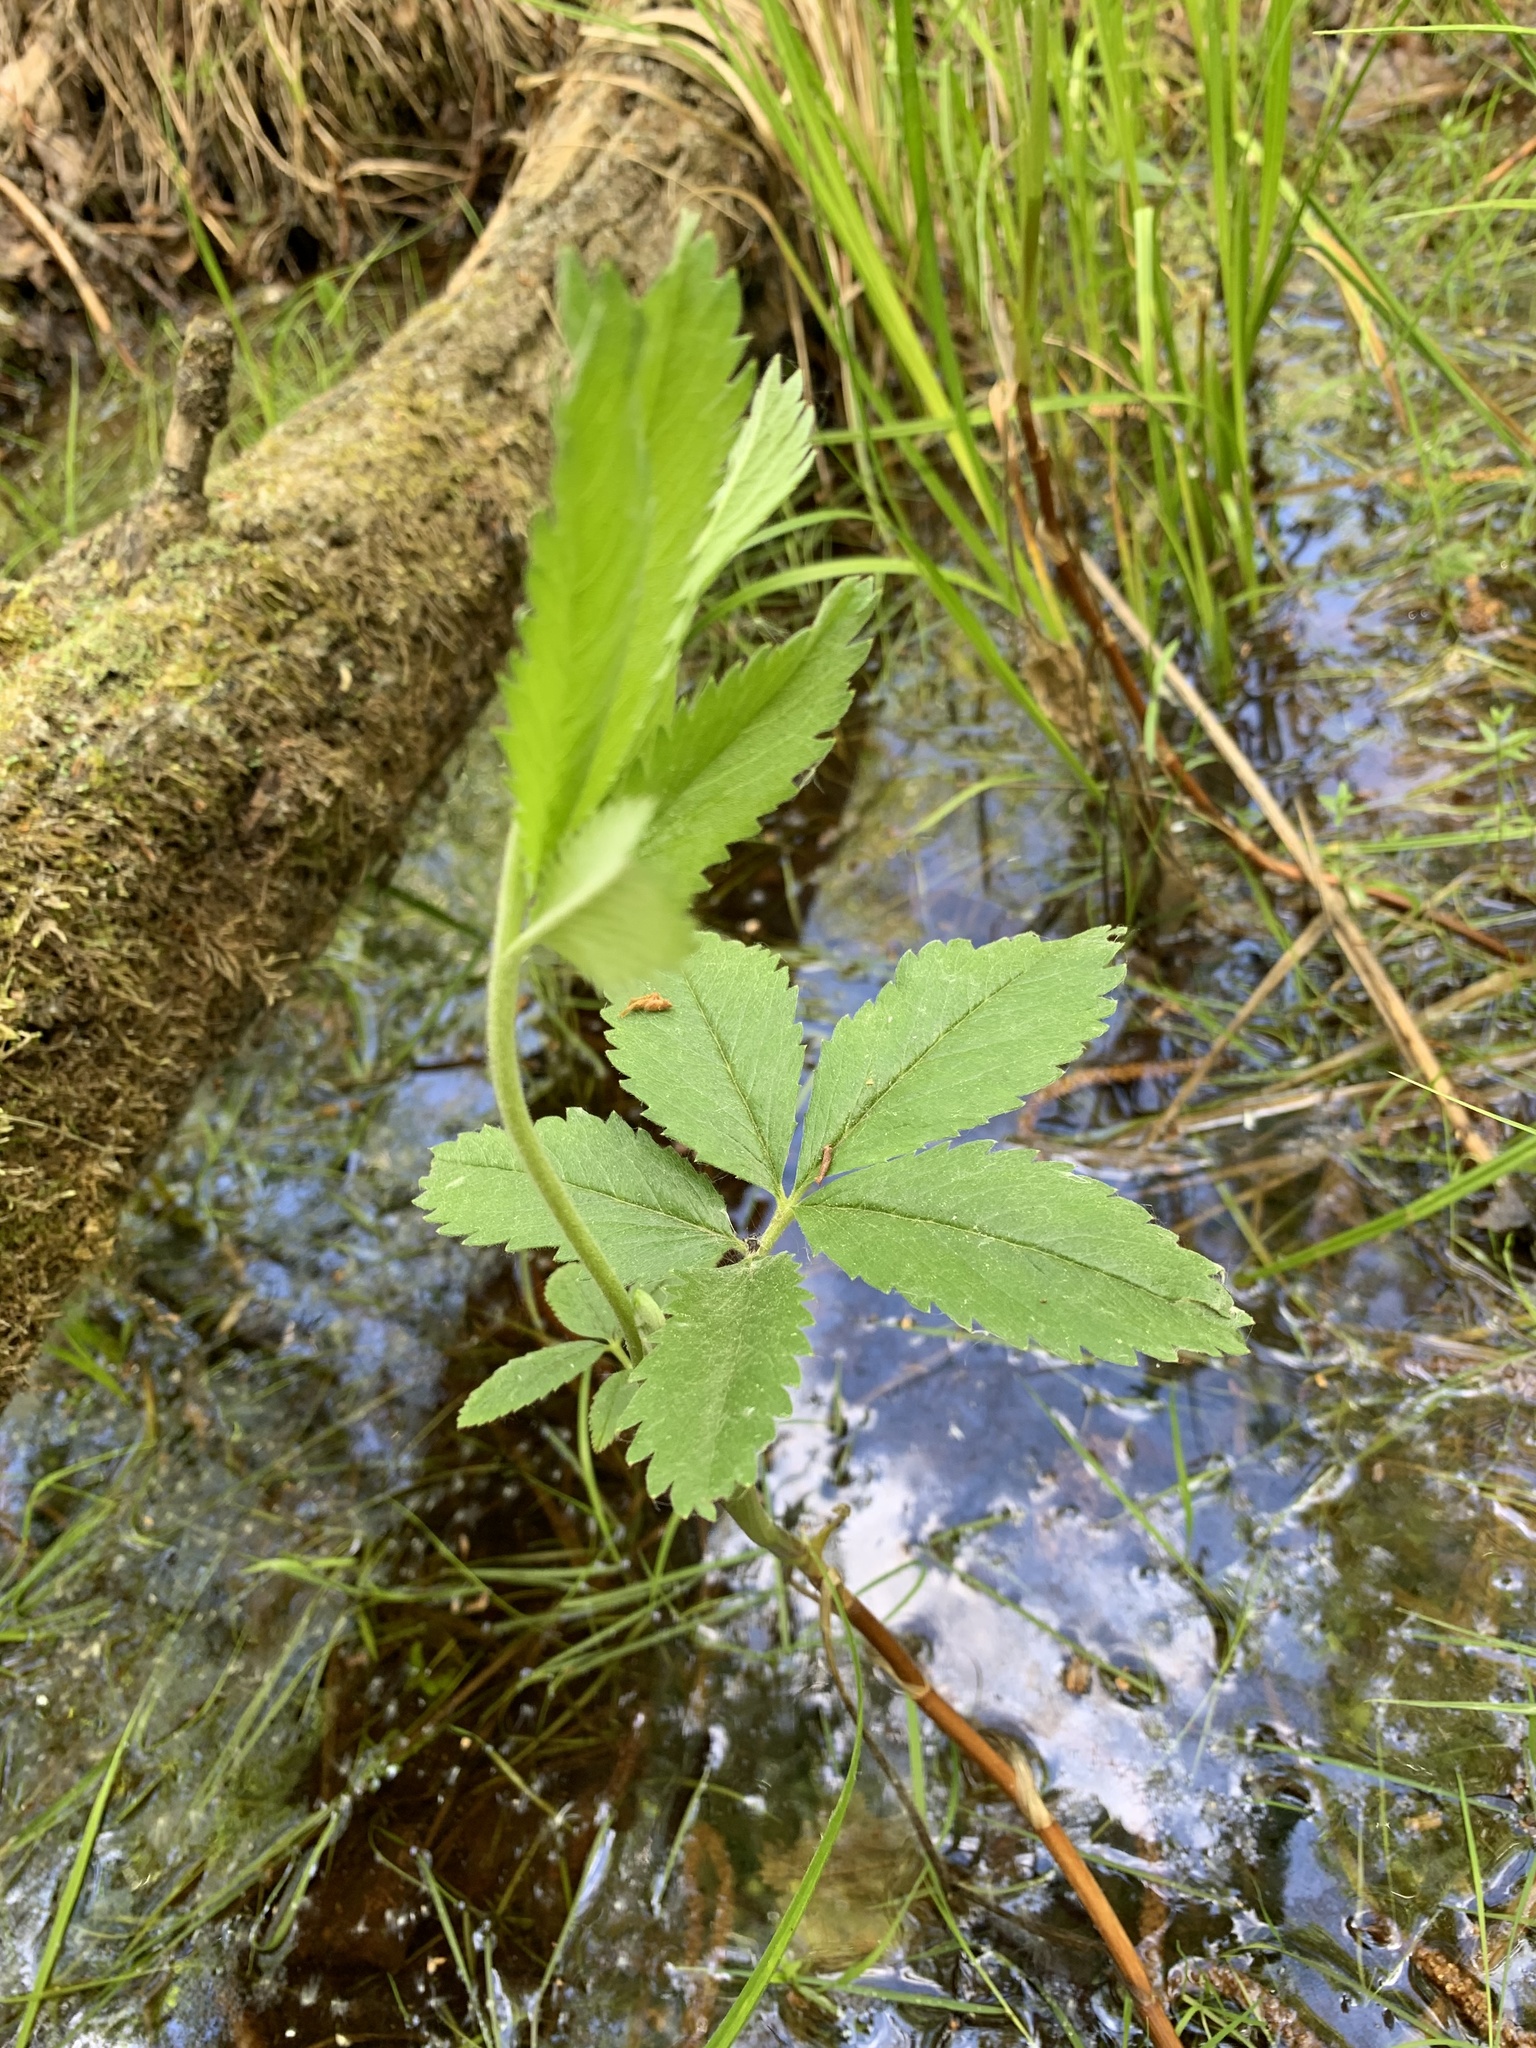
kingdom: Plantae
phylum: Tracheophyta
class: Magnoliopsida
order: Rosales
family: Rosaceae
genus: Comarum
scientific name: Comarum palustre
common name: Marsh cinquefoil
